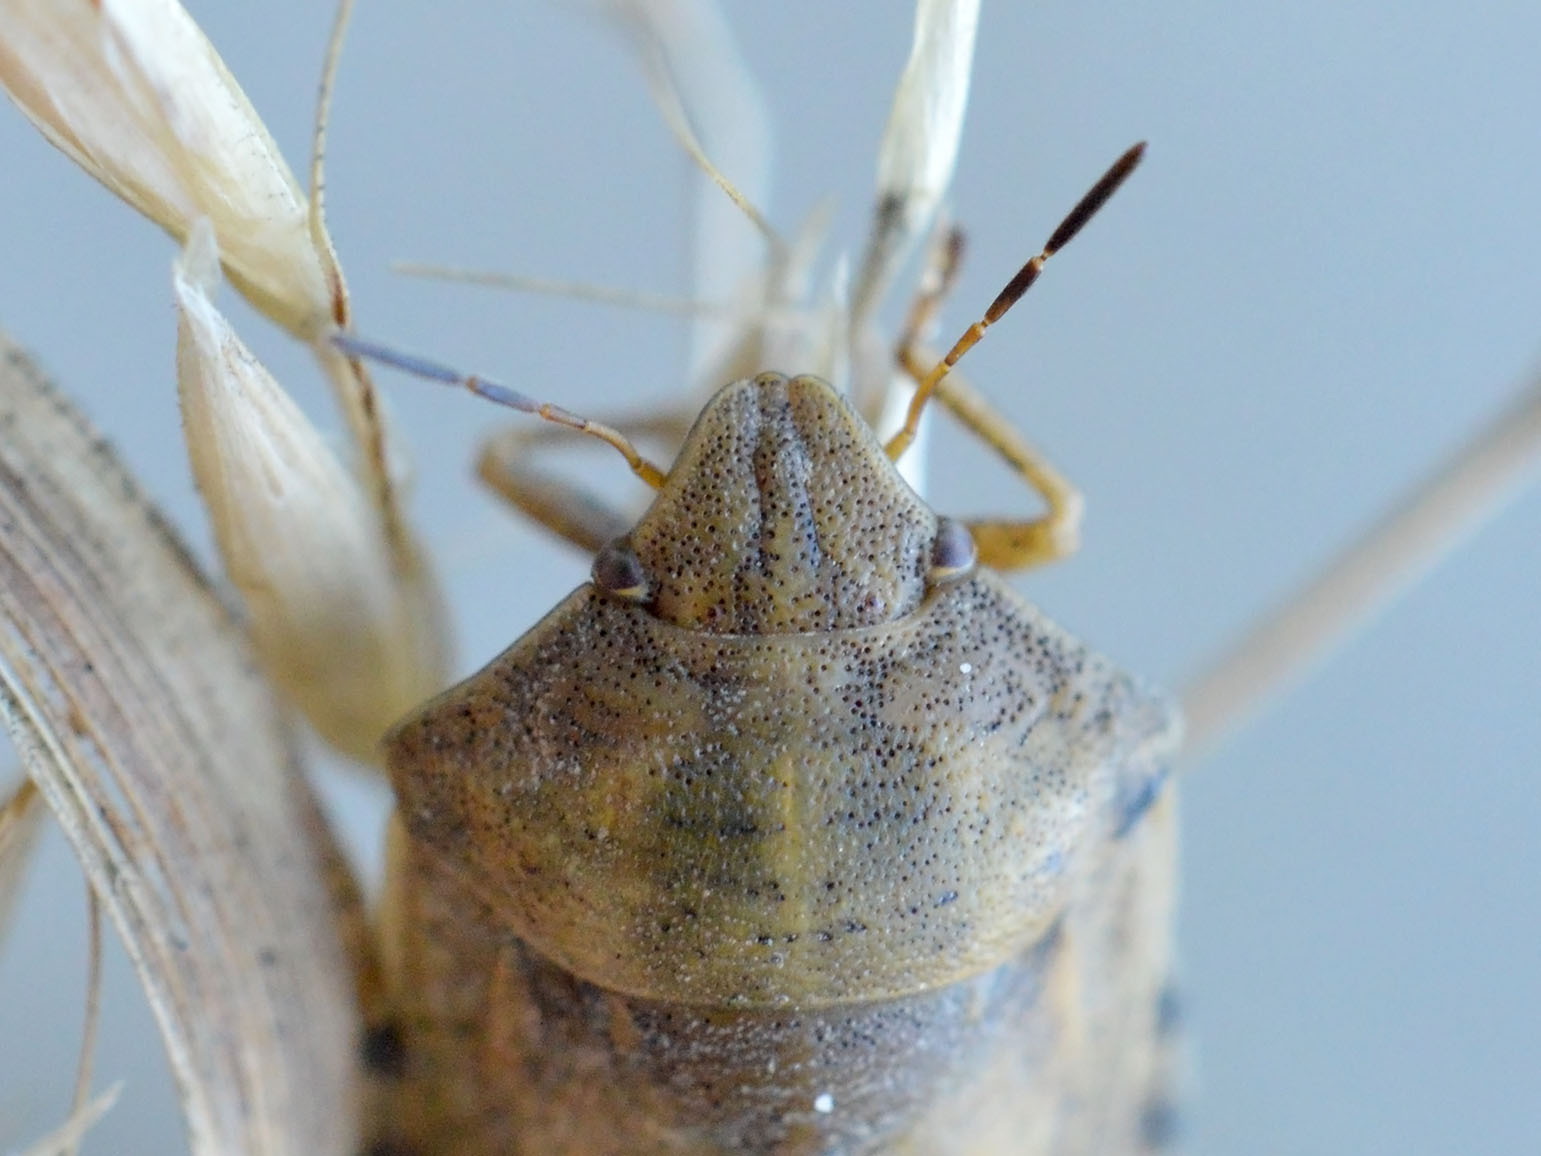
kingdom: Animalia
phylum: Arthropoda
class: Insecta
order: Hemiptera
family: Scutelleridae
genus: Eurygaster
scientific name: Eurygaster testudinaria
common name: Tortoise bug
